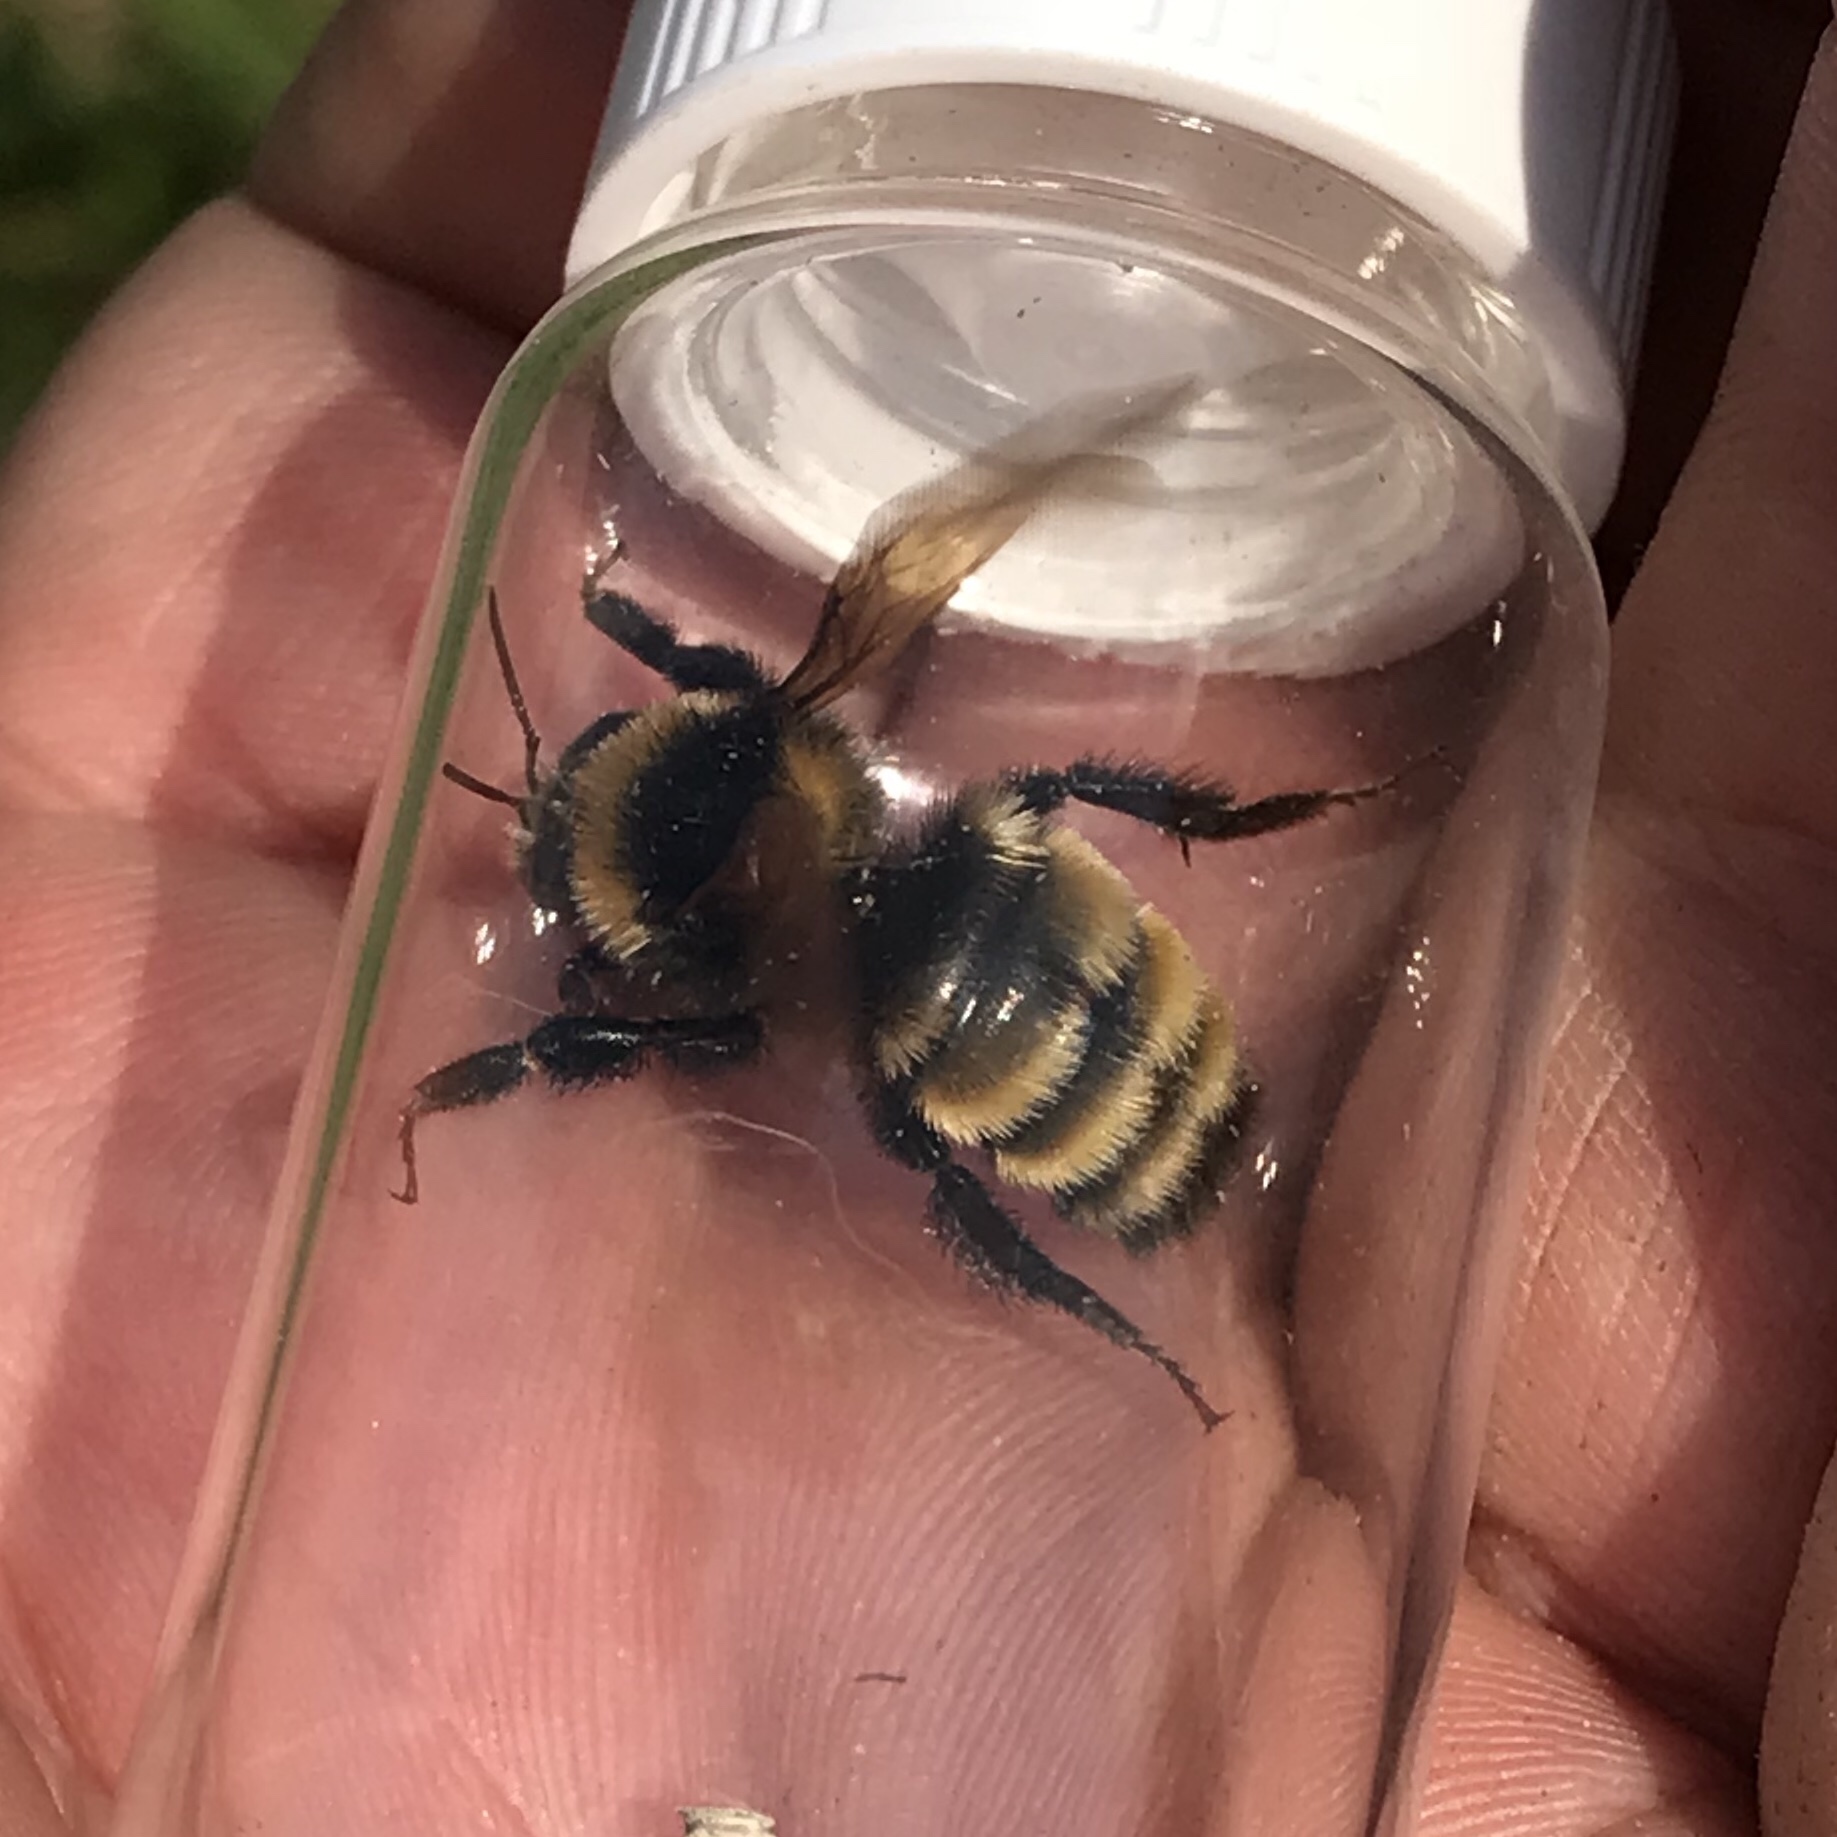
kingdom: Animalia
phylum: Arthropoda
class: Insecta
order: Hymenoptera
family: Apidae
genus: Bombus
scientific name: Bombus borealis
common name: Northern amber bumble bee
